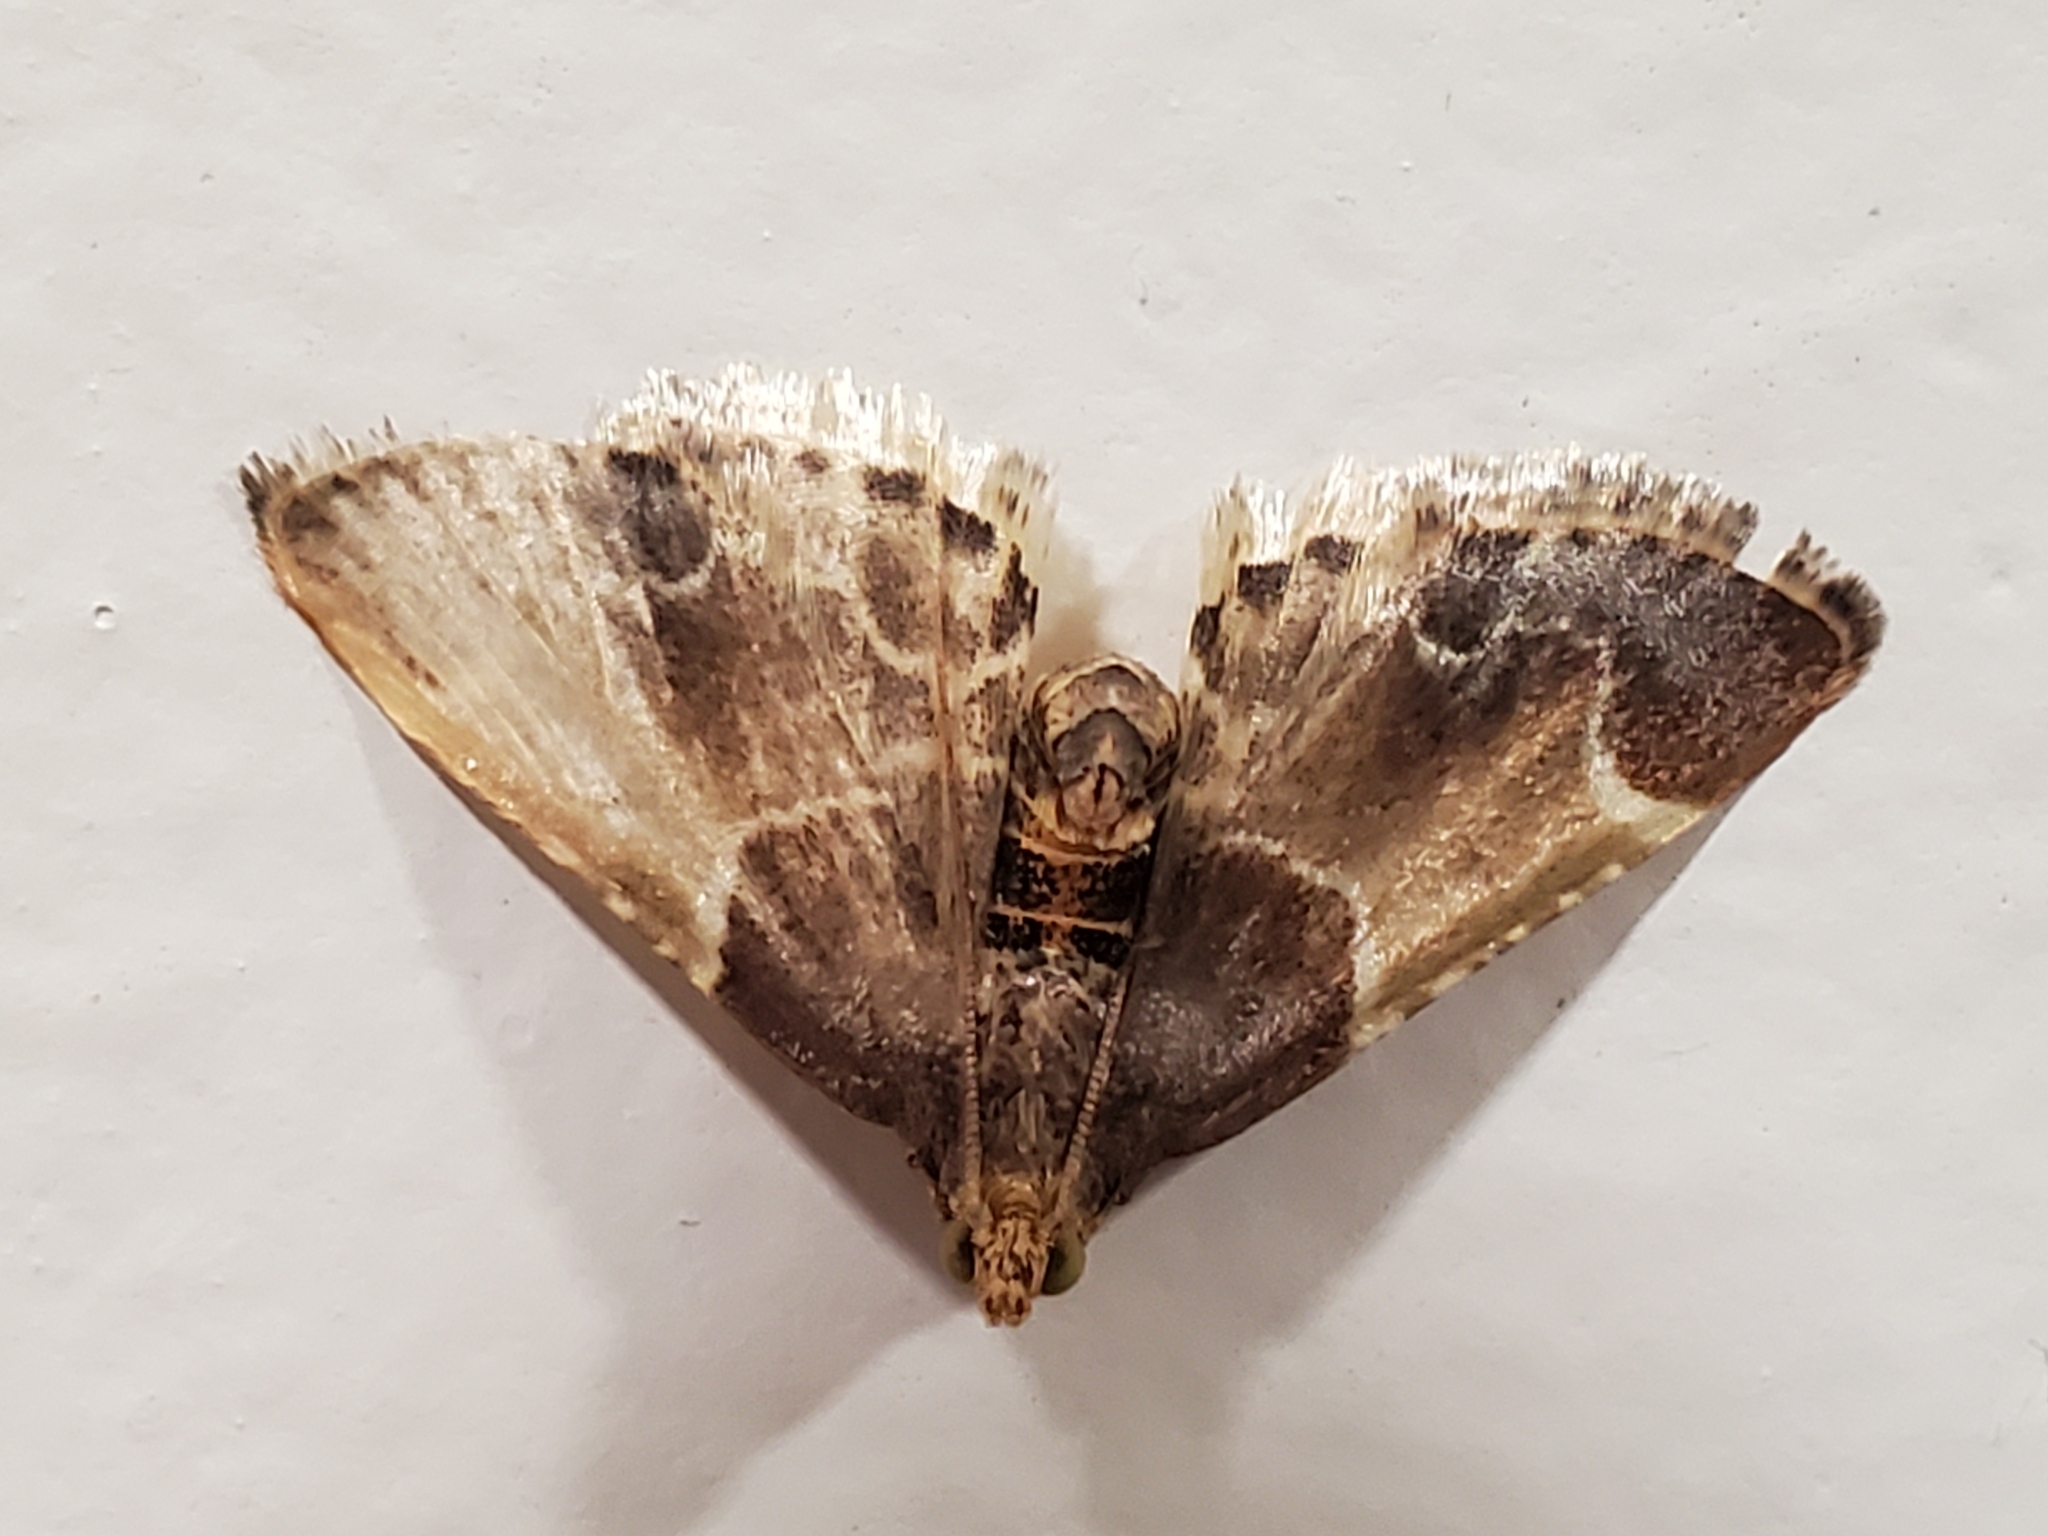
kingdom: Animalia
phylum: Arthropoda
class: Insecta
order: Lepidoptera
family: Pyralidae
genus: Pyralis
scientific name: Pyralis farinalis
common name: Meal moth
